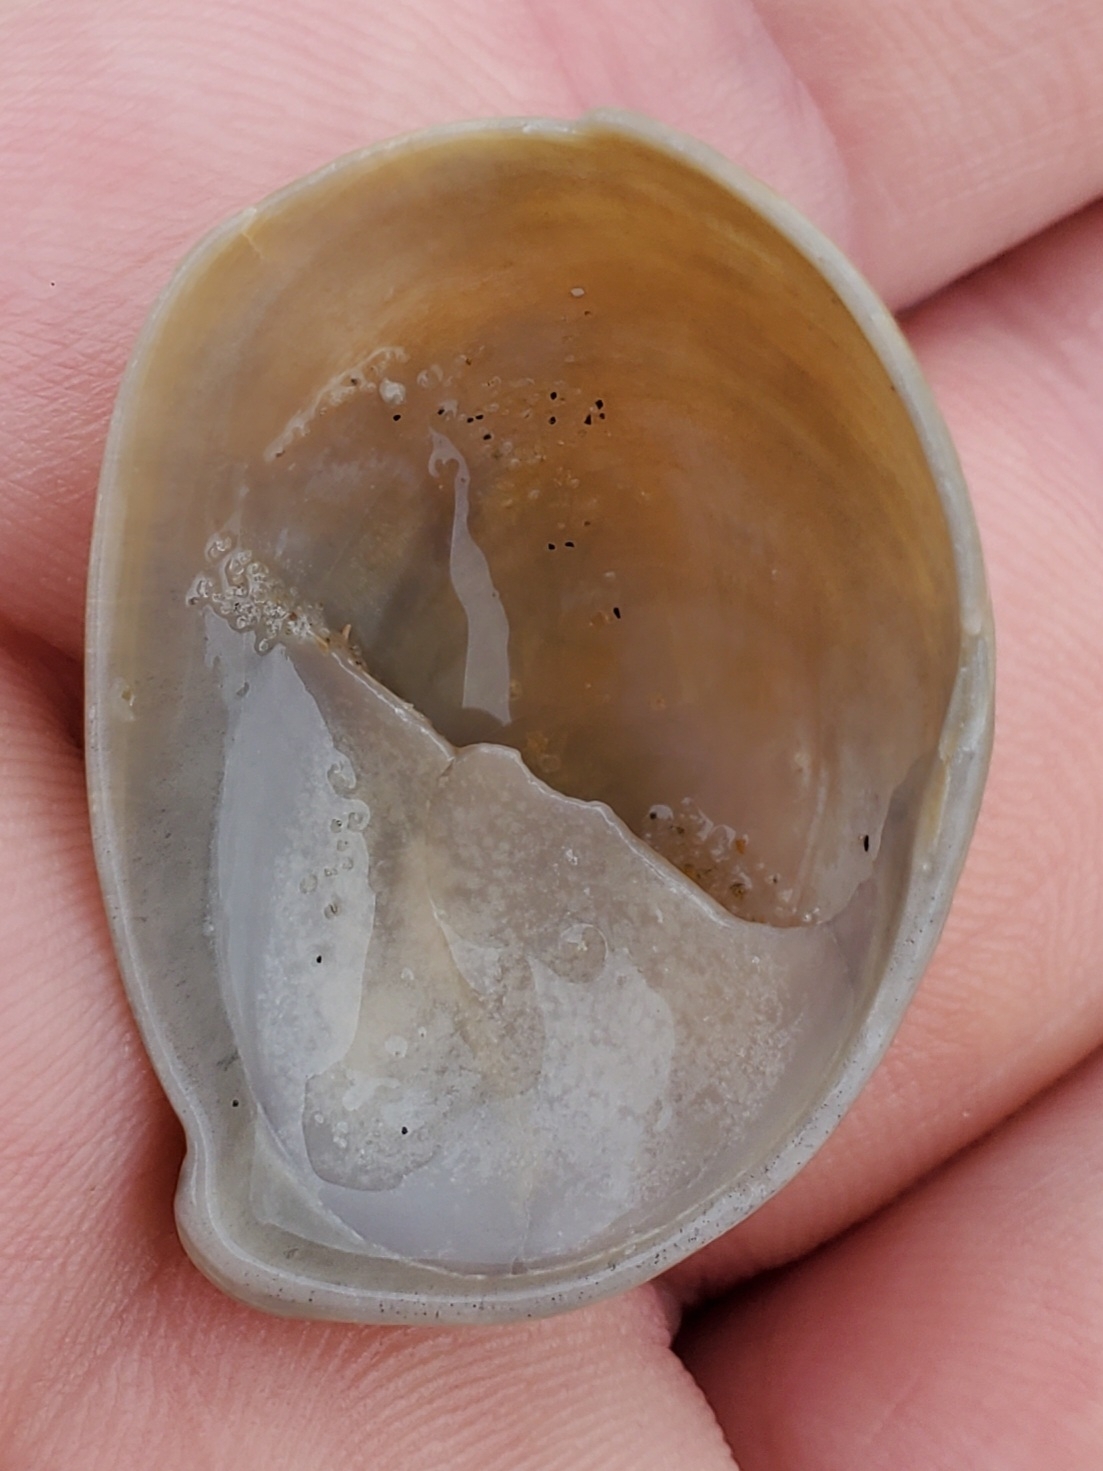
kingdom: Animalia
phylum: Mollusca
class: Gastropoda
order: Littorinimorpha
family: Calyptraeidae
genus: Crepidula
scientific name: Crepidula fornicata
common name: Slipper limpet
